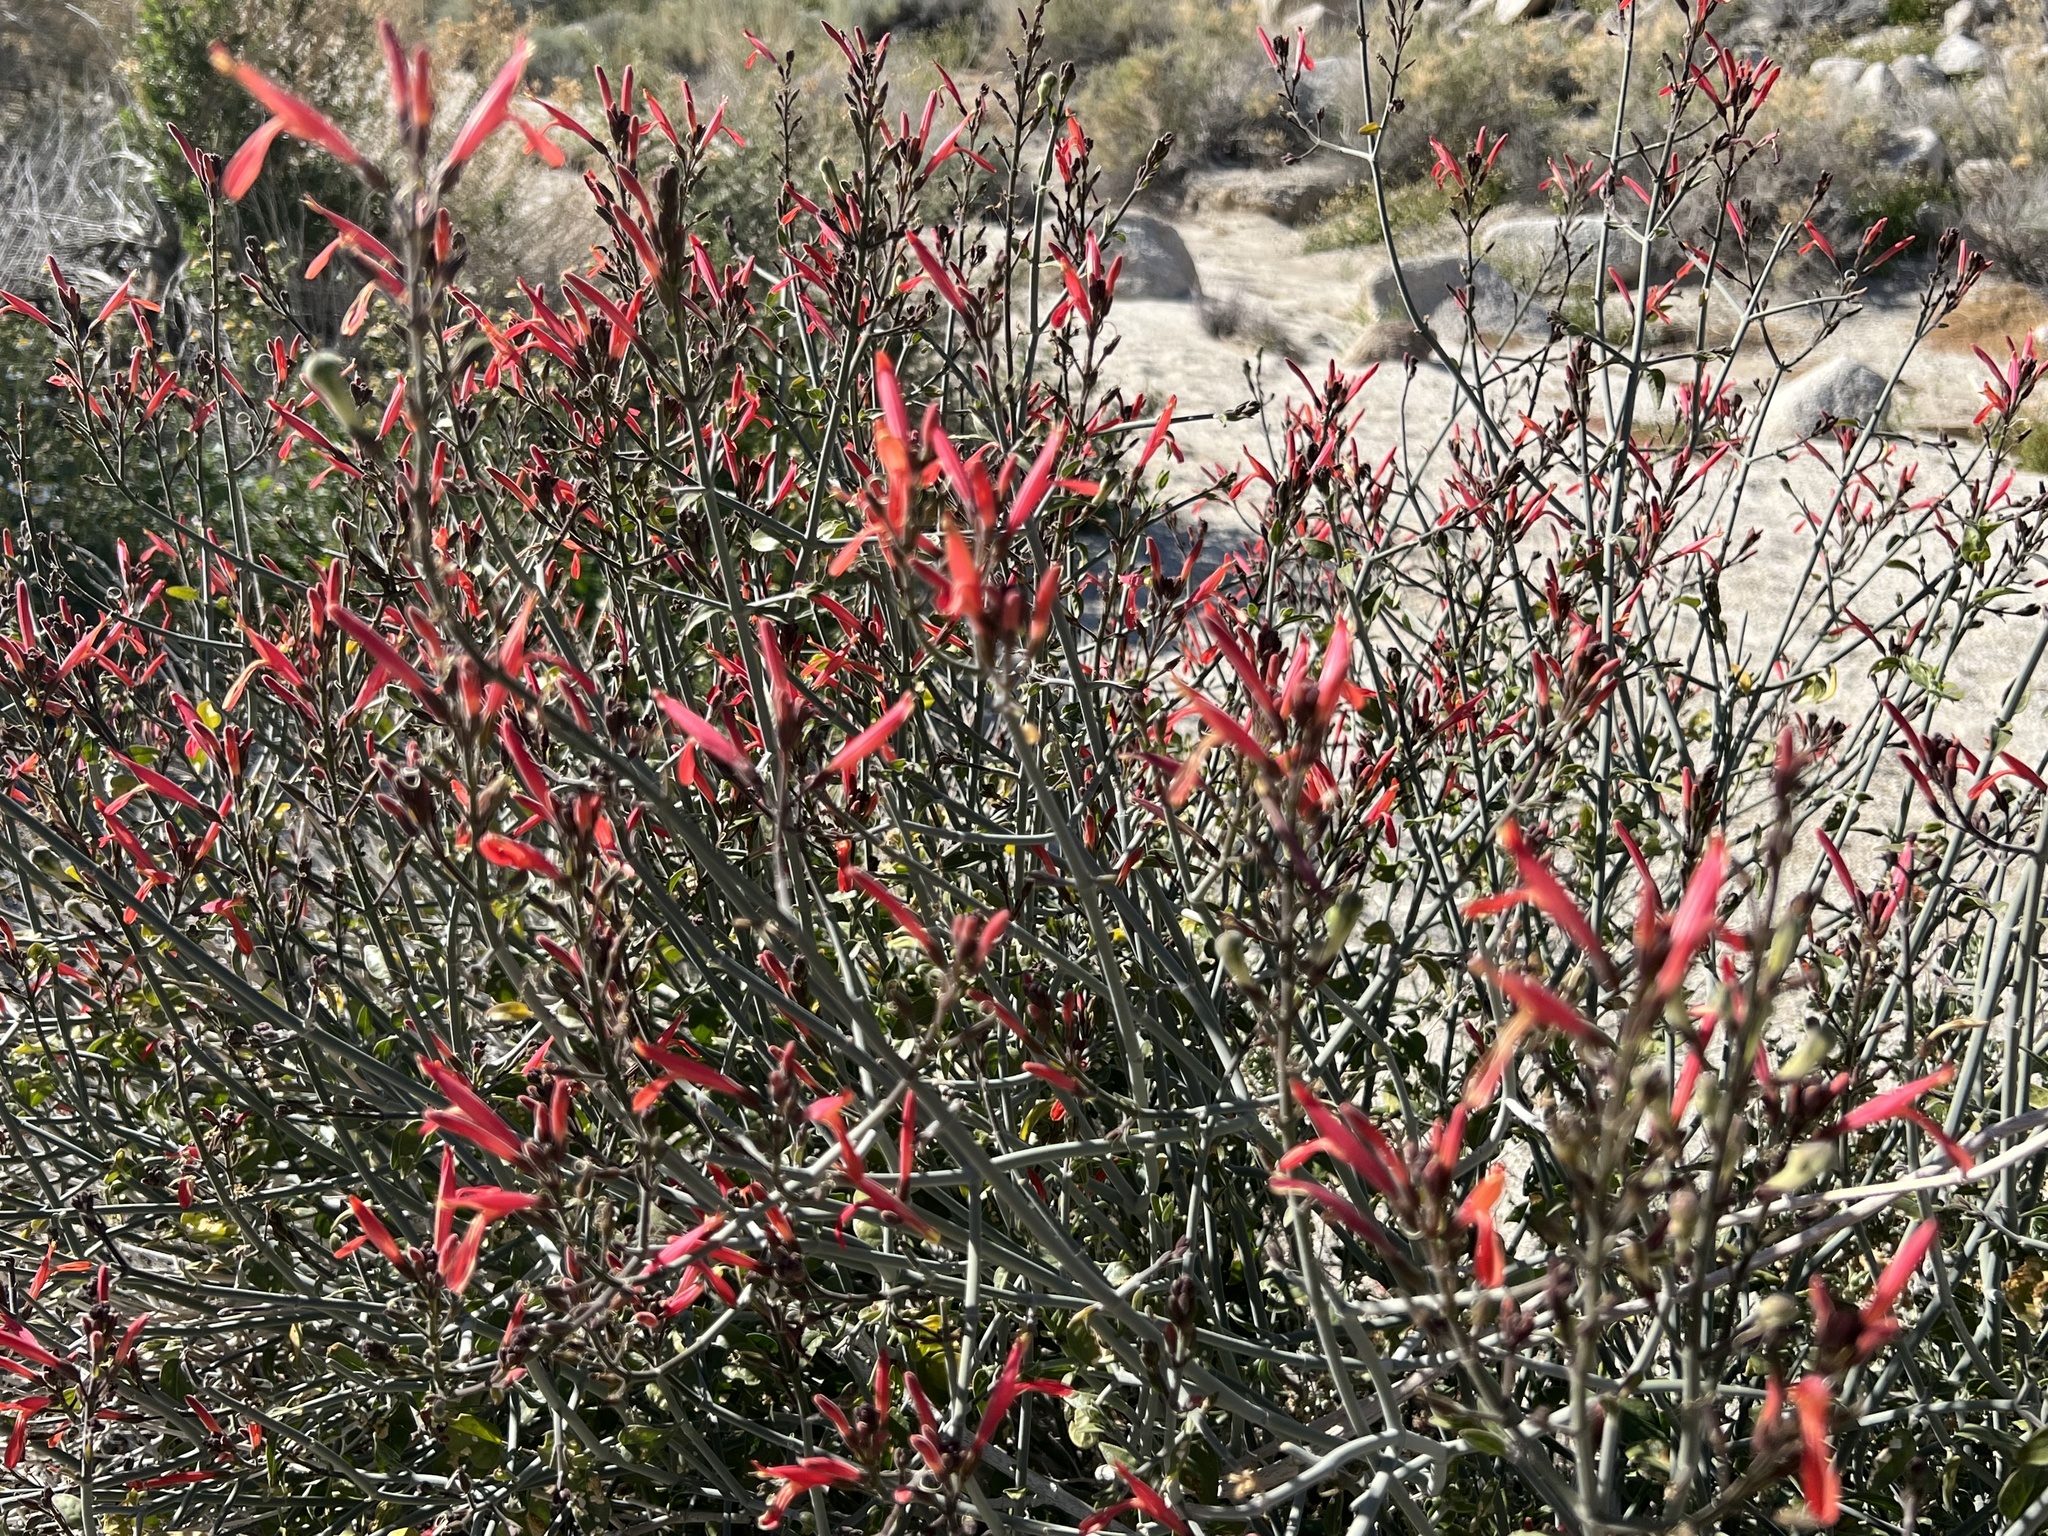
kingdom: Plantae
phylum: Tracheophyta
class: Magnoliopsida
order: Lamiales
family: Acanthaceae
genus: Justicia
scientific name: Justicia californica
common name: Chuparosa-honeysuckle
